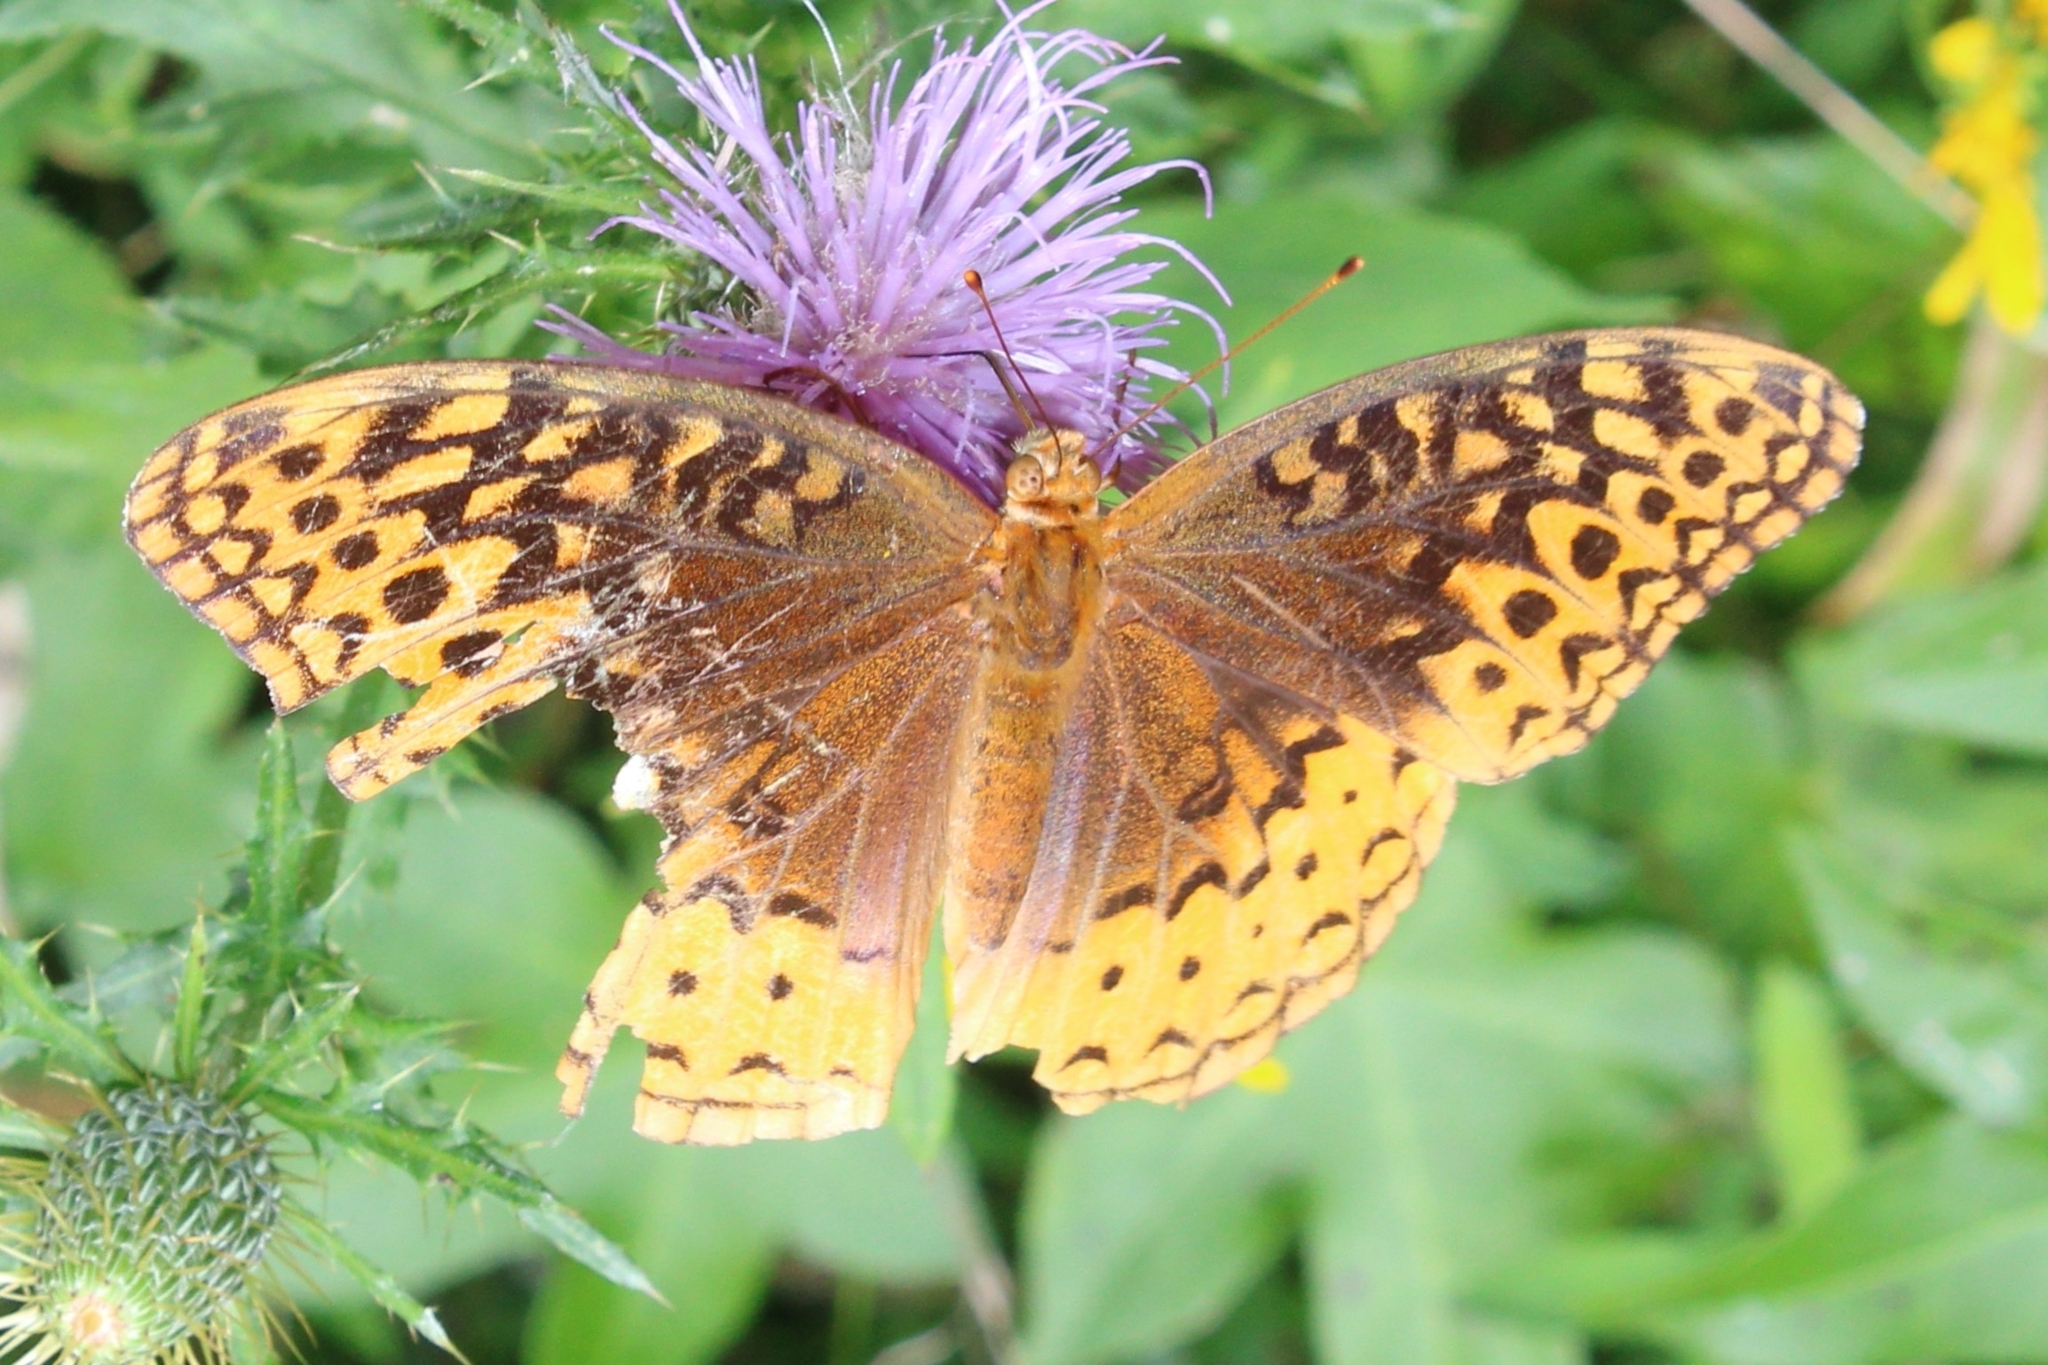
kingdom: Animalia
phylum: Arthropoda
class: Insecta
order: Lepidoptera
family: Nymphalidae
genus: Speyeria
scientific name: Speyeria cybele
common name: Great spangled fritillary
